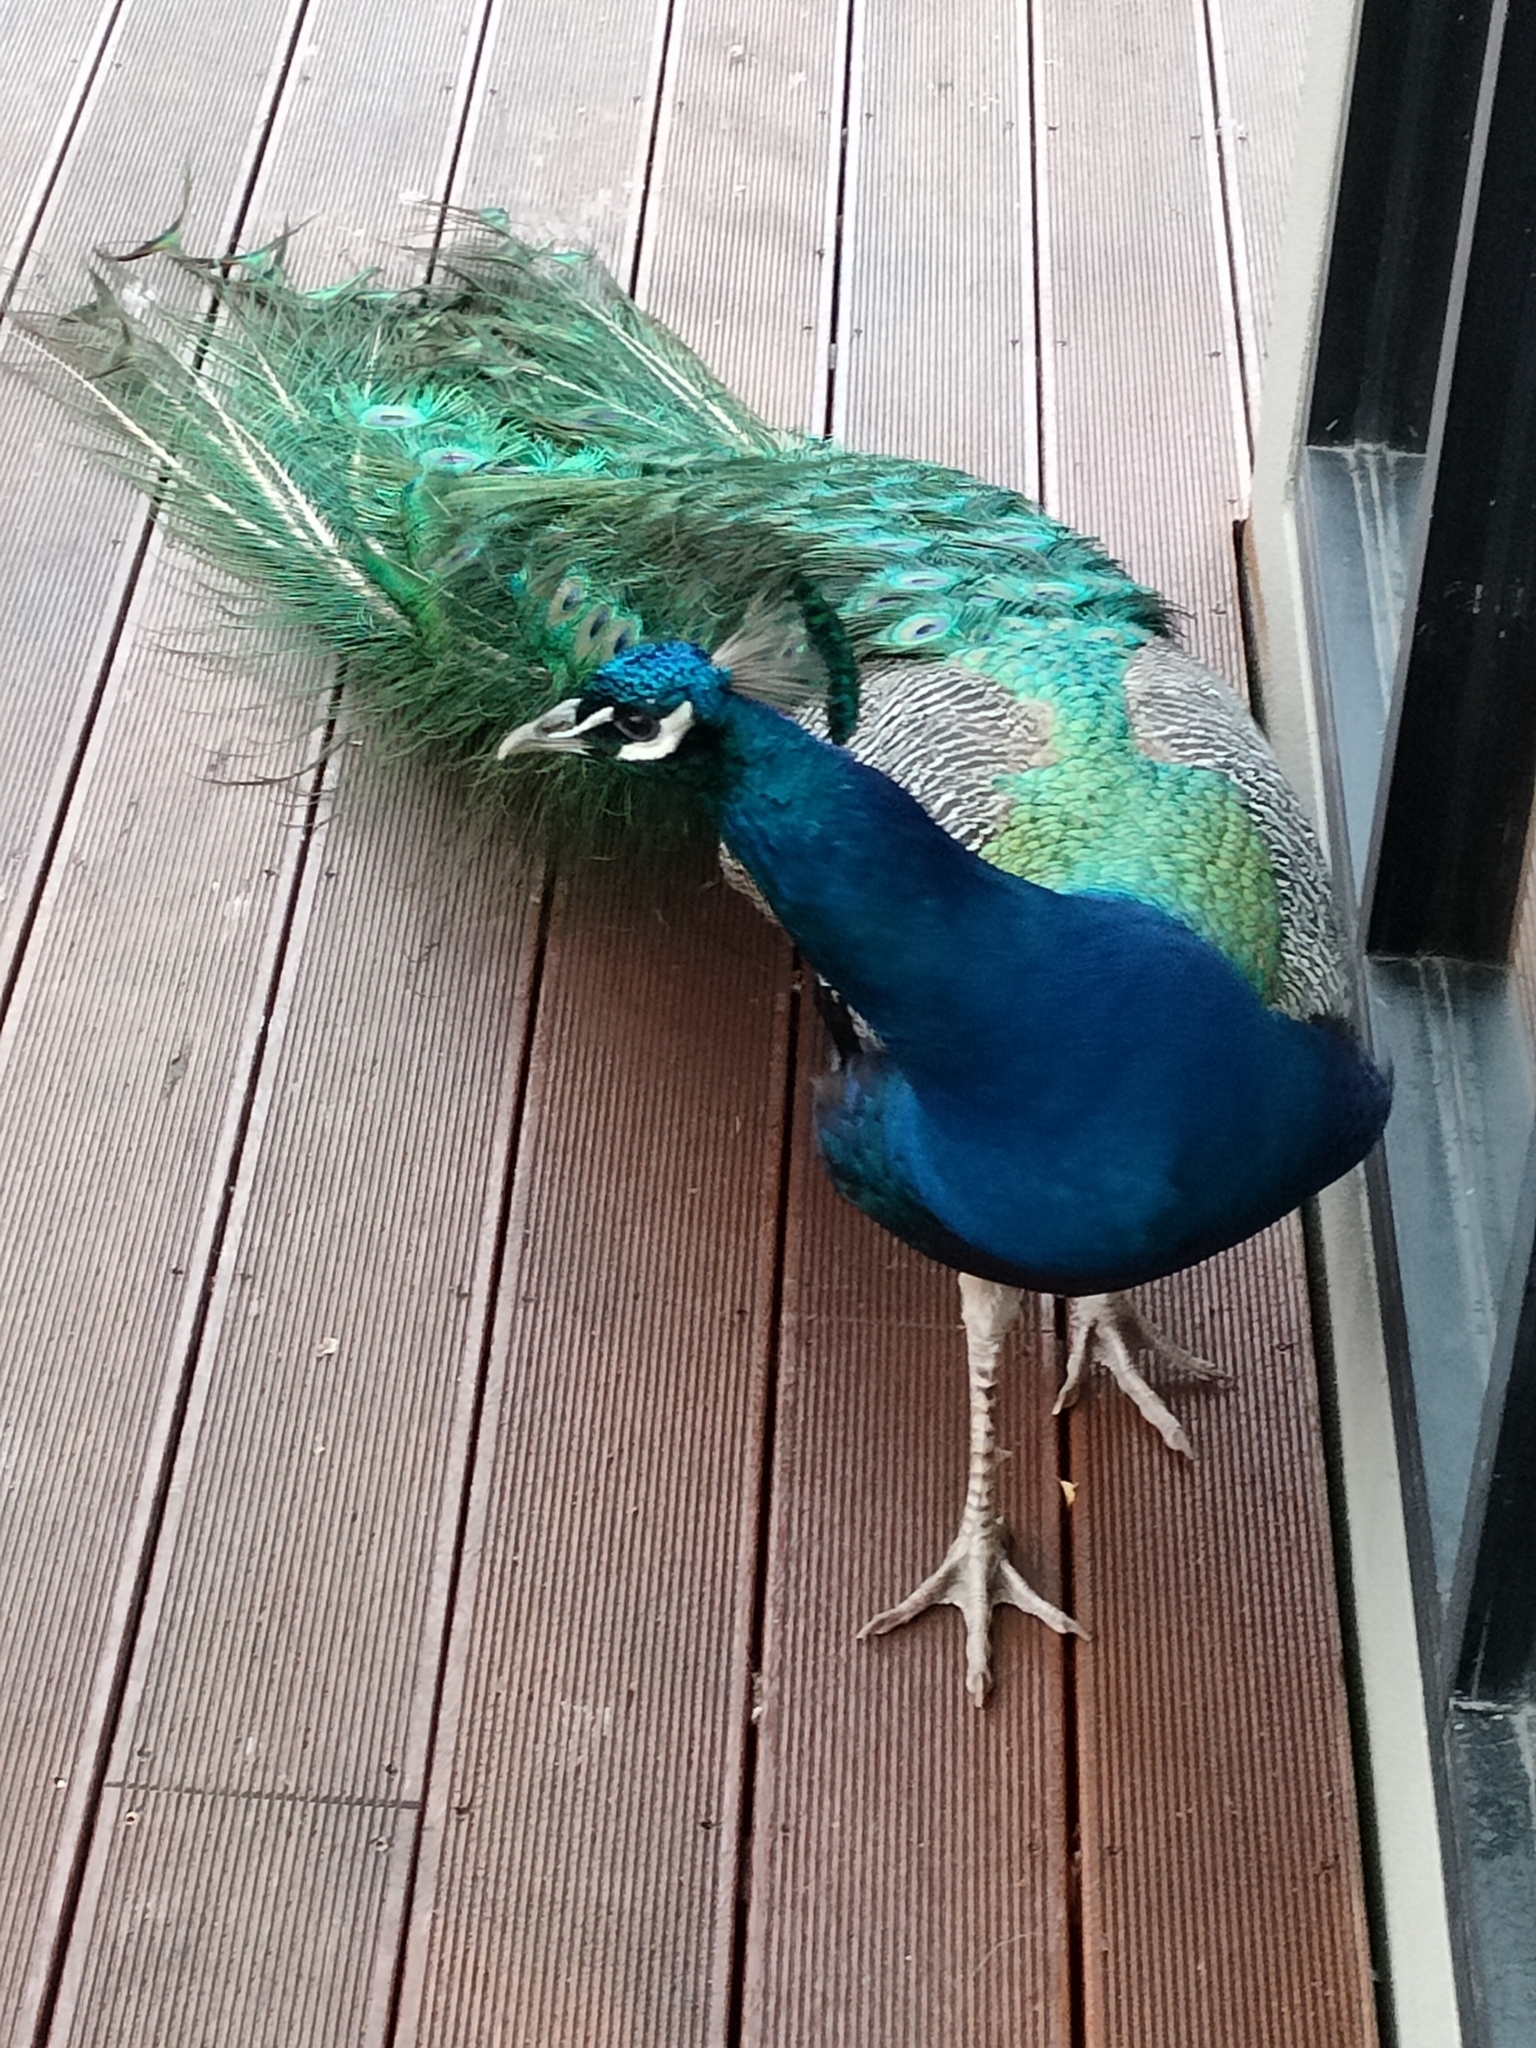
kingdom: Animalia
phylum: Chordata
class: Aves
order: Galliformes
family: Phasianidae
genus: Pavo
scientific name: Pavo cristatus
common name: Indian peafowl
